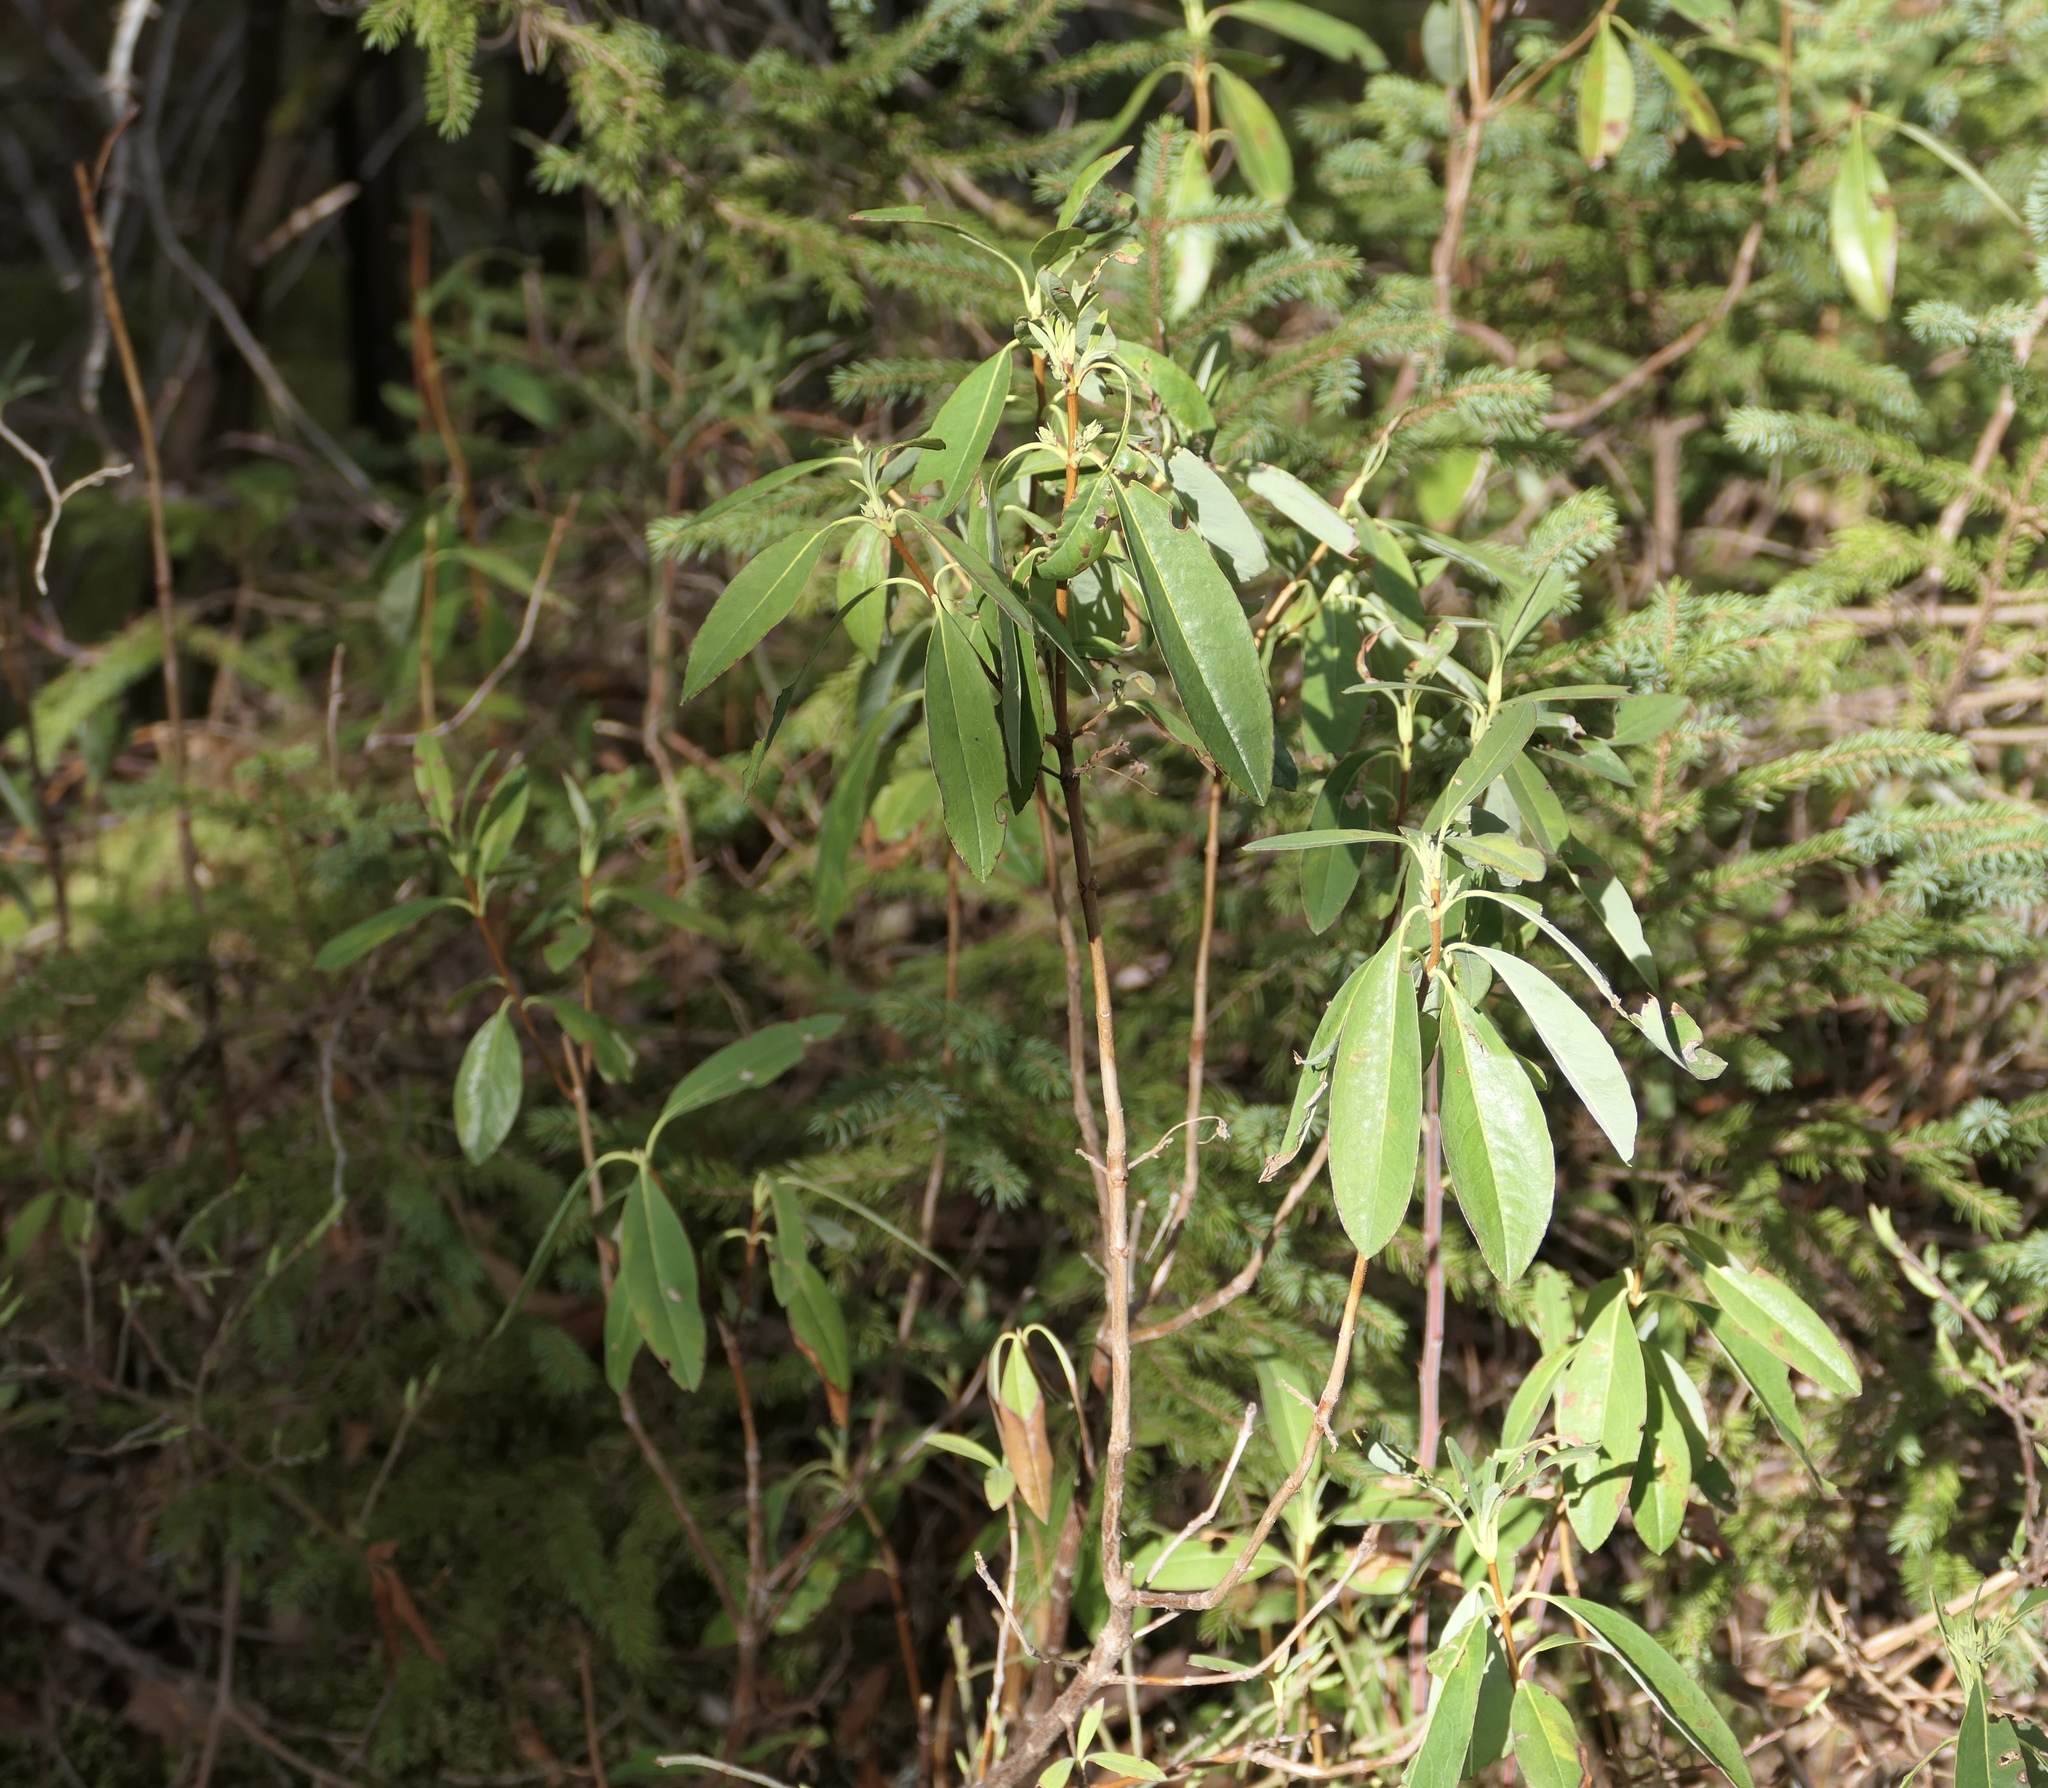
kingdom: Plantae
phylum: Tracheophyta
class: Magnoliopsida
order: Ericales
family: Ericaceae
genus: Kalmia
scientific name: Kalmia angustifolia
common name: Sheep-laurel
